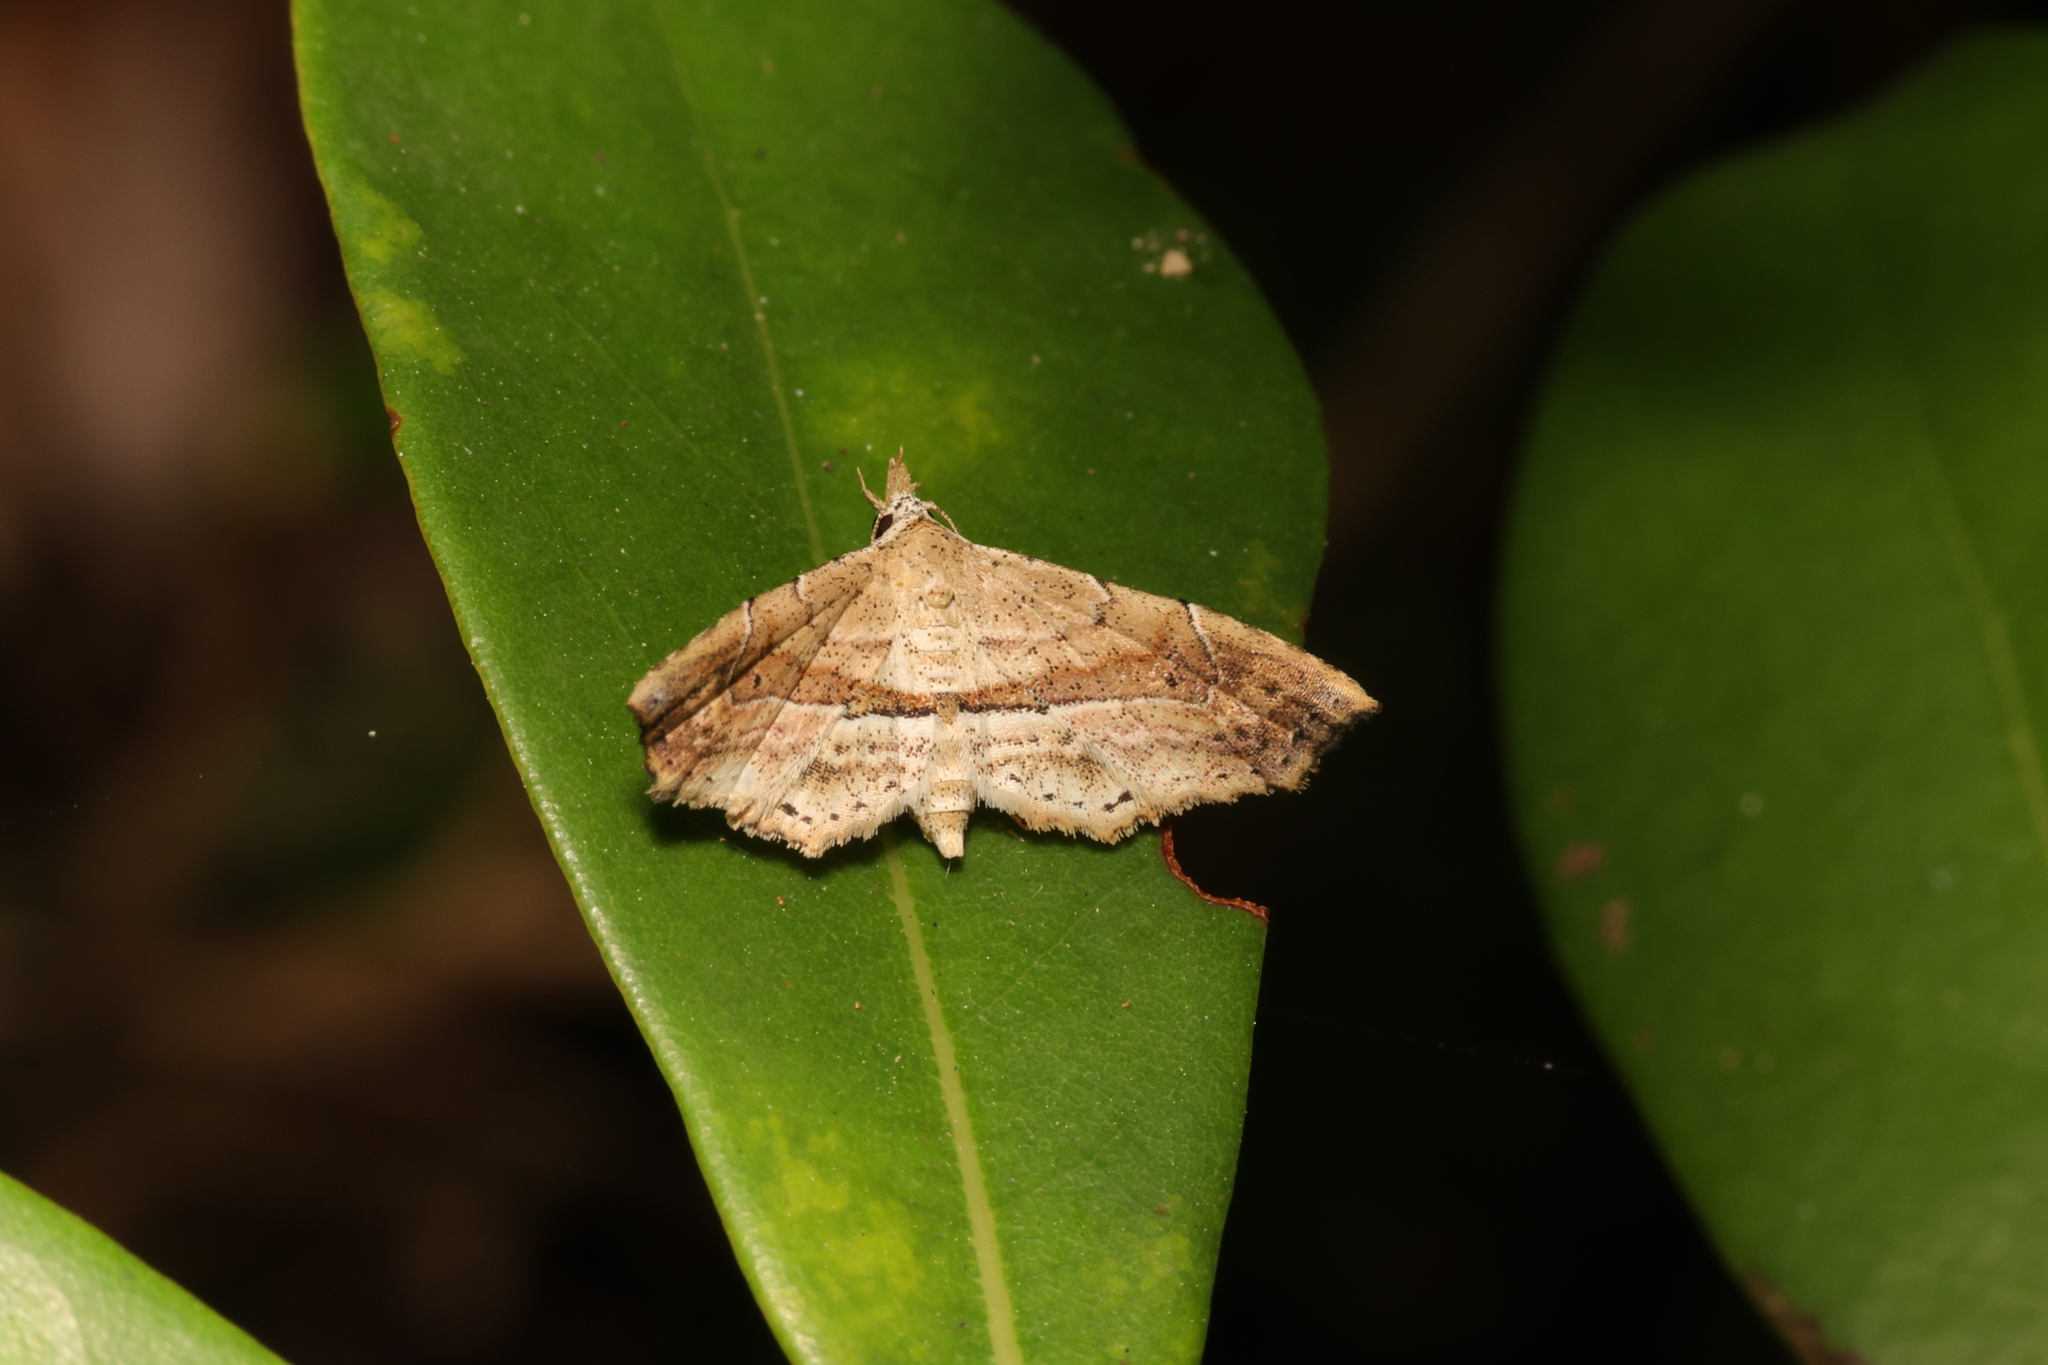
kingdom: Animalia
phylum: Arthropoda
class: Insecta
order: Lepidoptera
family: Erebidae
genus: Hypenagonia
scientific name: Hypenagonia angulata
